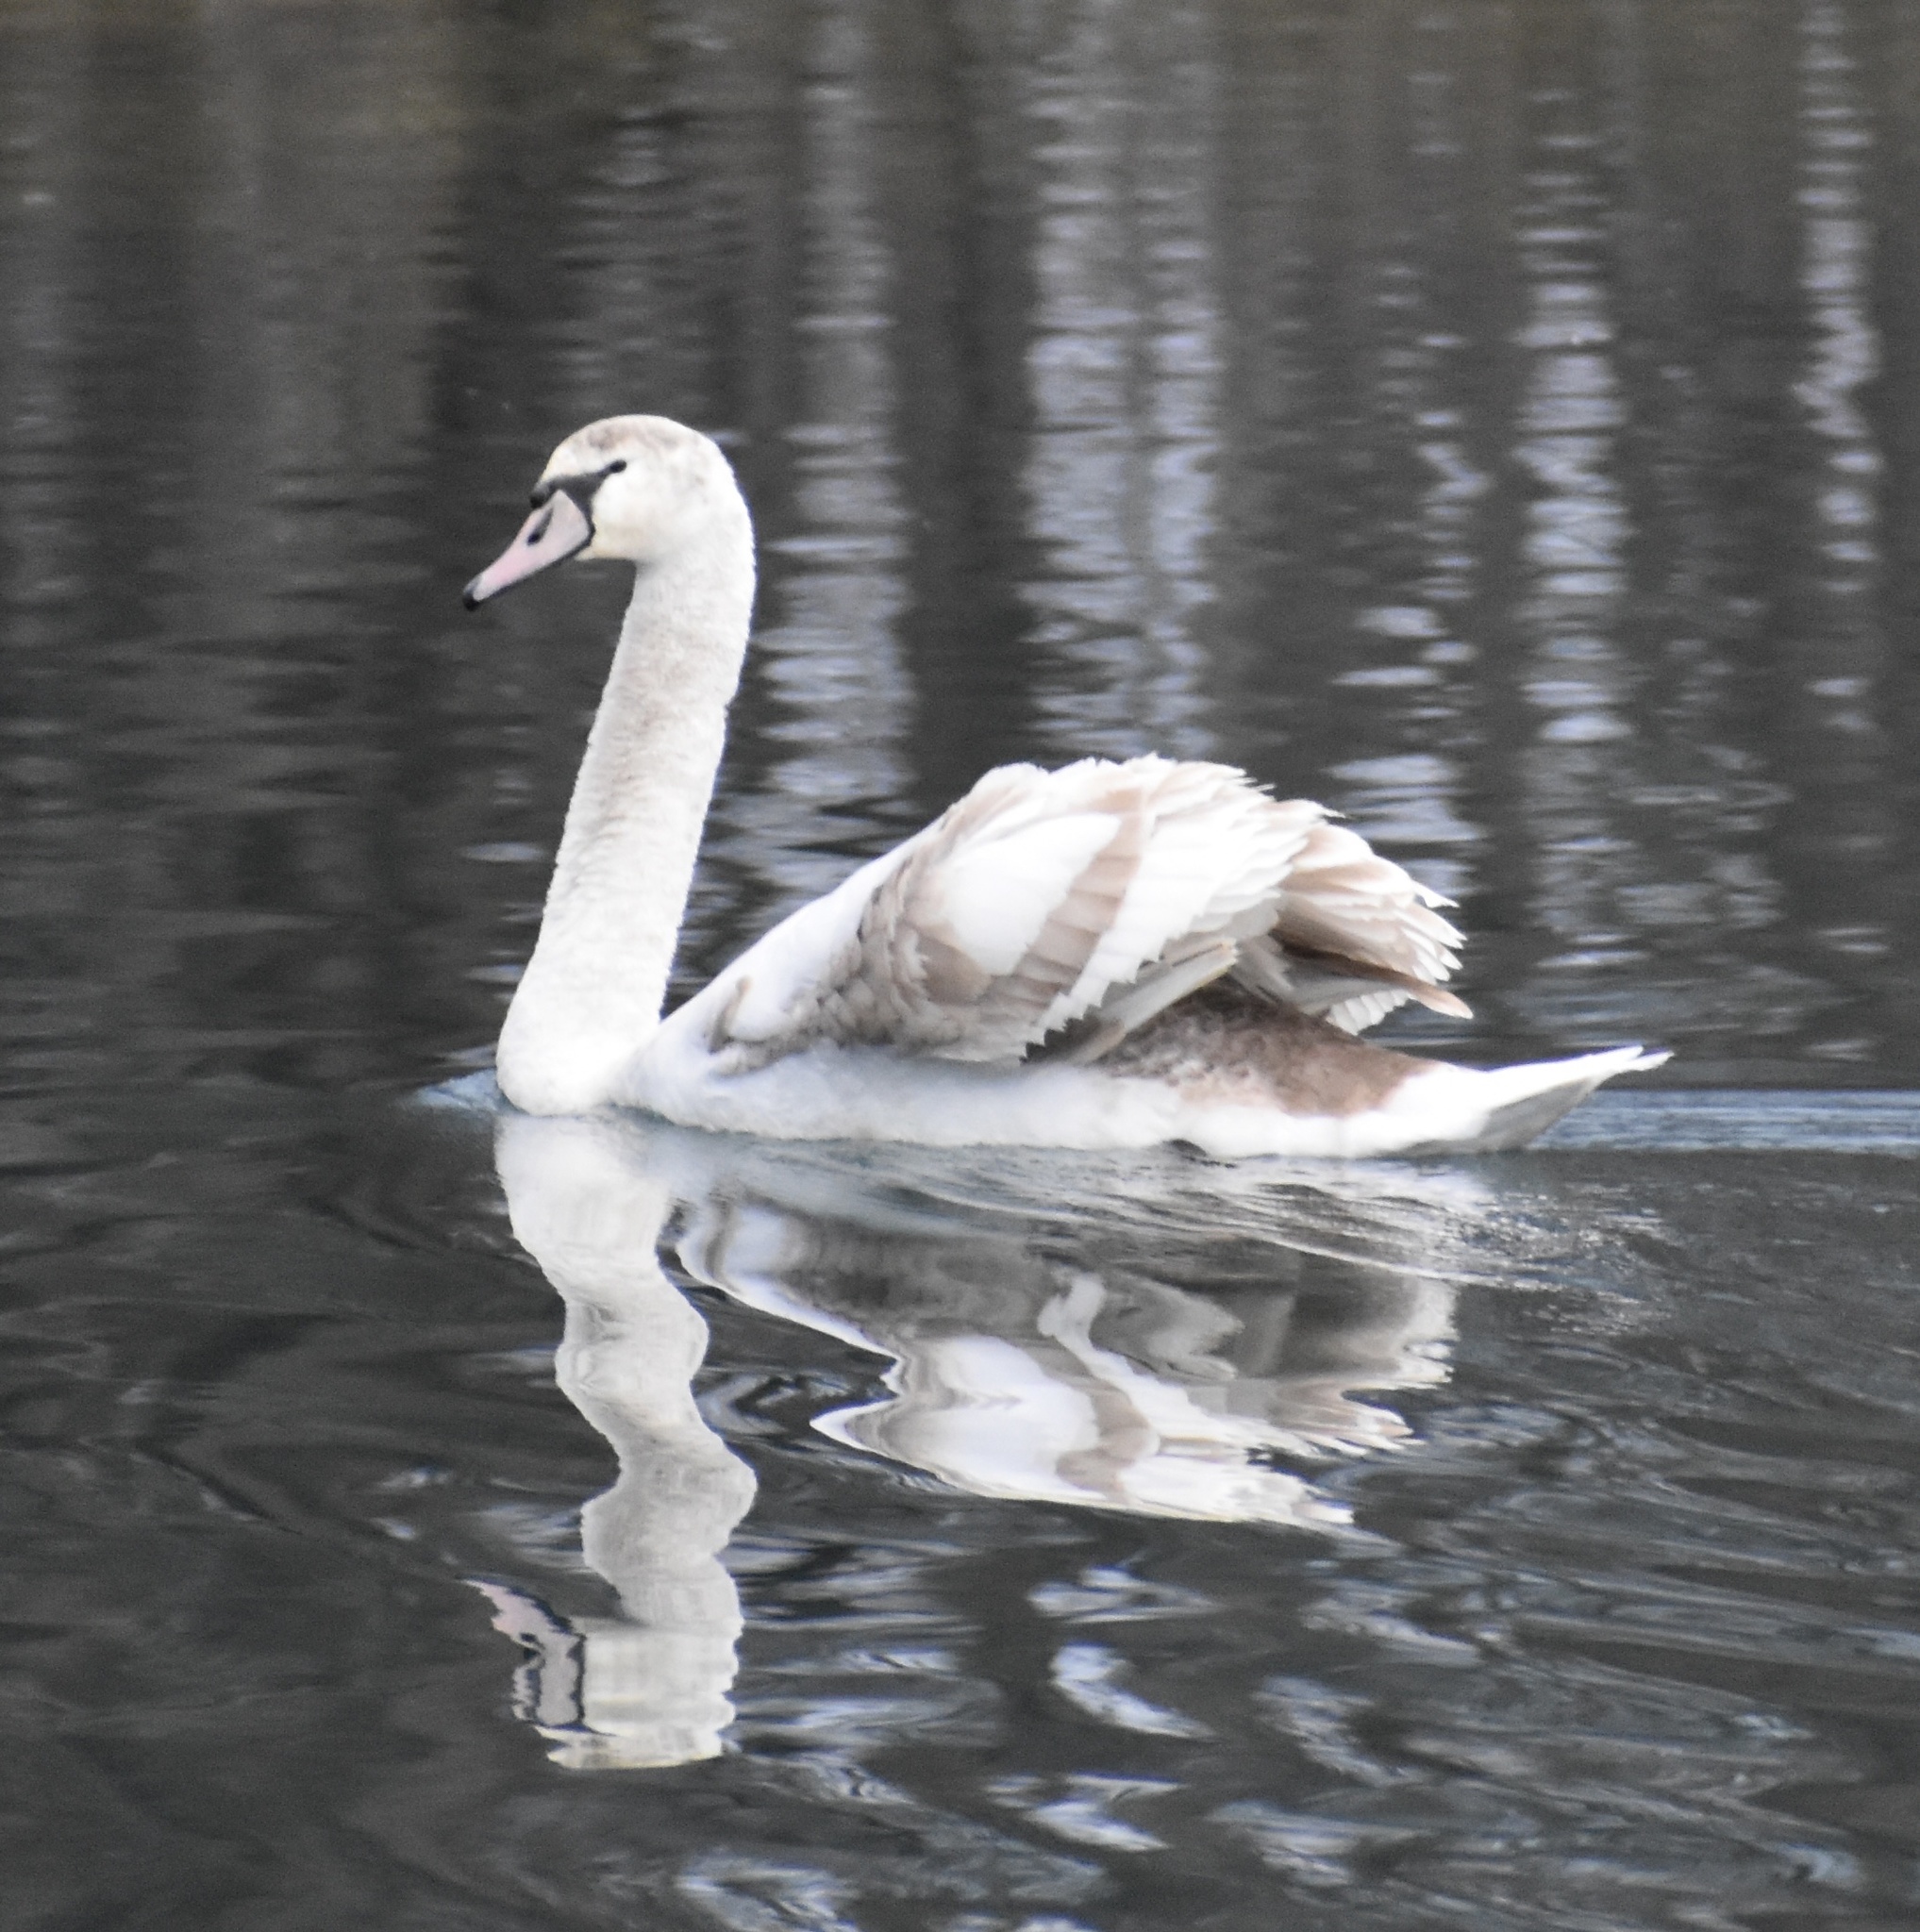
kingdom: Animalia
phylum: Chordata
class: Aves
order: Anseriformes
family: Anatidae
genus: Cygnus
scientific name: Cygnus olor
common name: Mute swan
